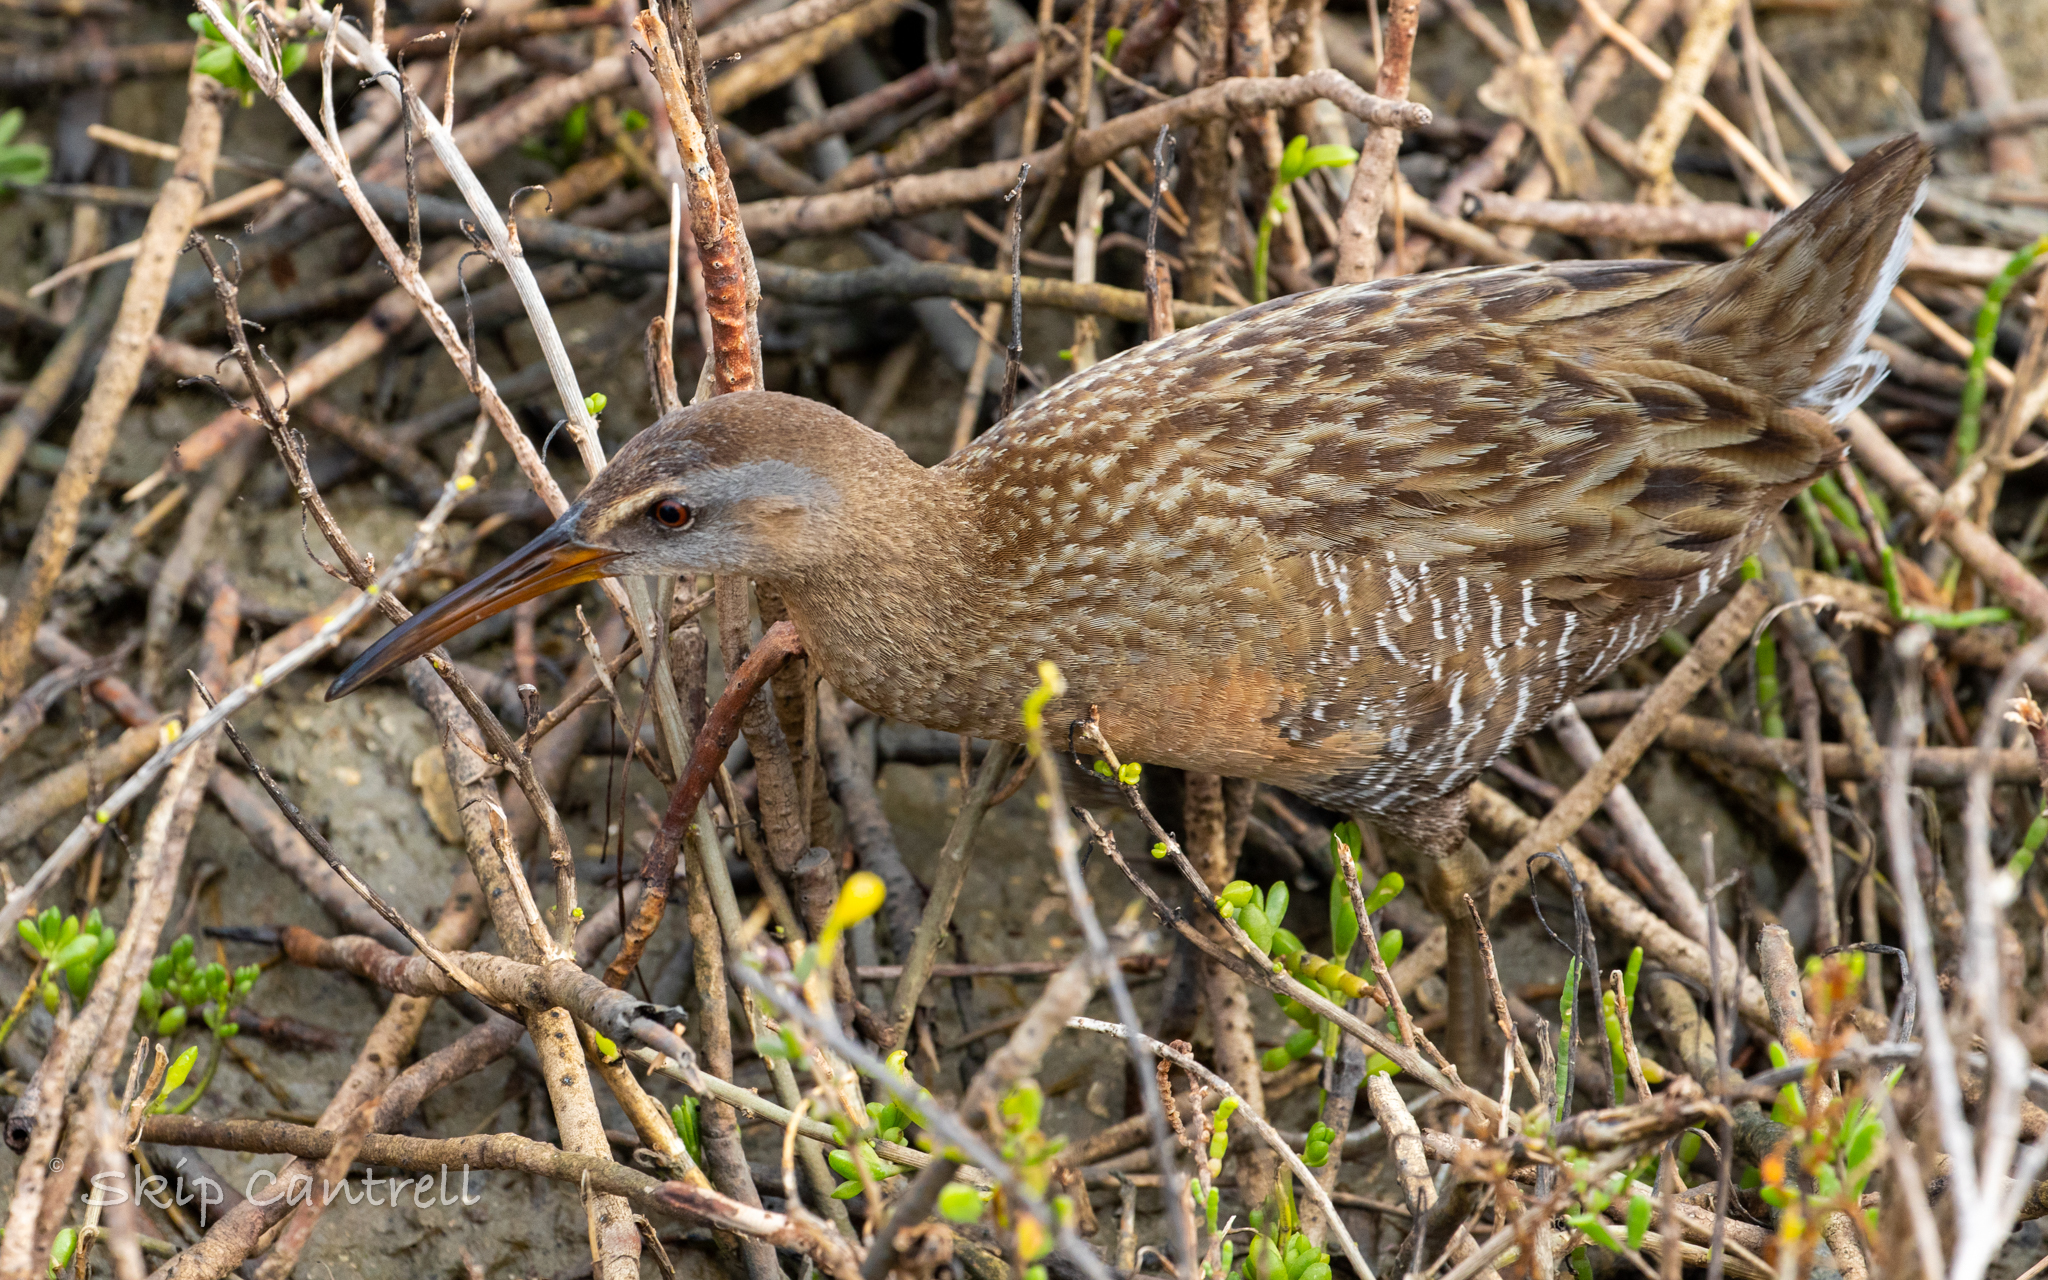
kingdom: Animalia
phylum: Chordata
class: Aves
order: Gruiformes
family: Rallidae
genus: Rallus
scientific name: Rallus crepitans
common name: Clapper rail
